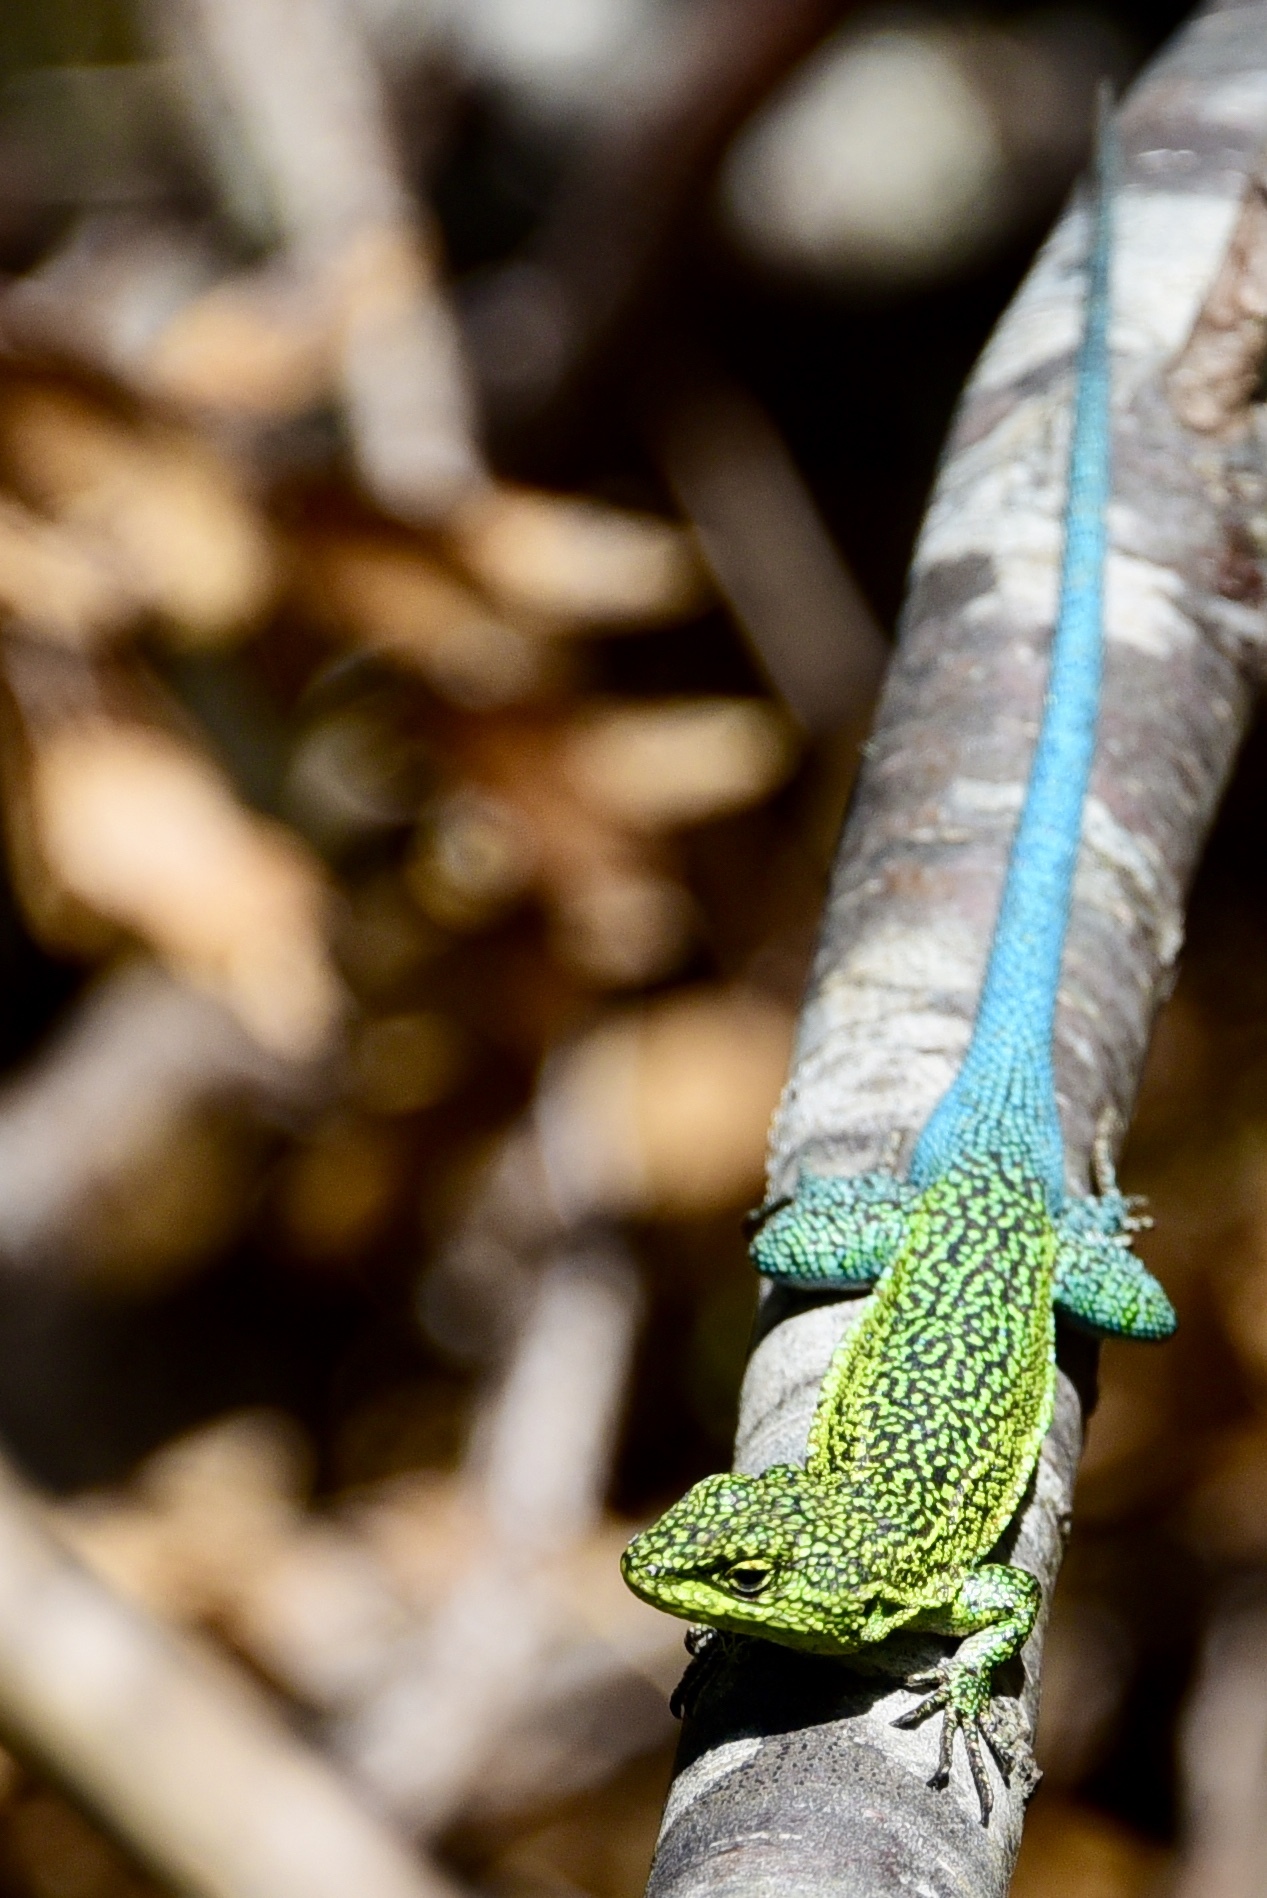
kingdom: Animalia
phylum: Chordata
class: Squamata
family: Liolaemidae
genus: Liolaemus
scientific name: Liolaemus tenuis
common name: Thin tree iguana
